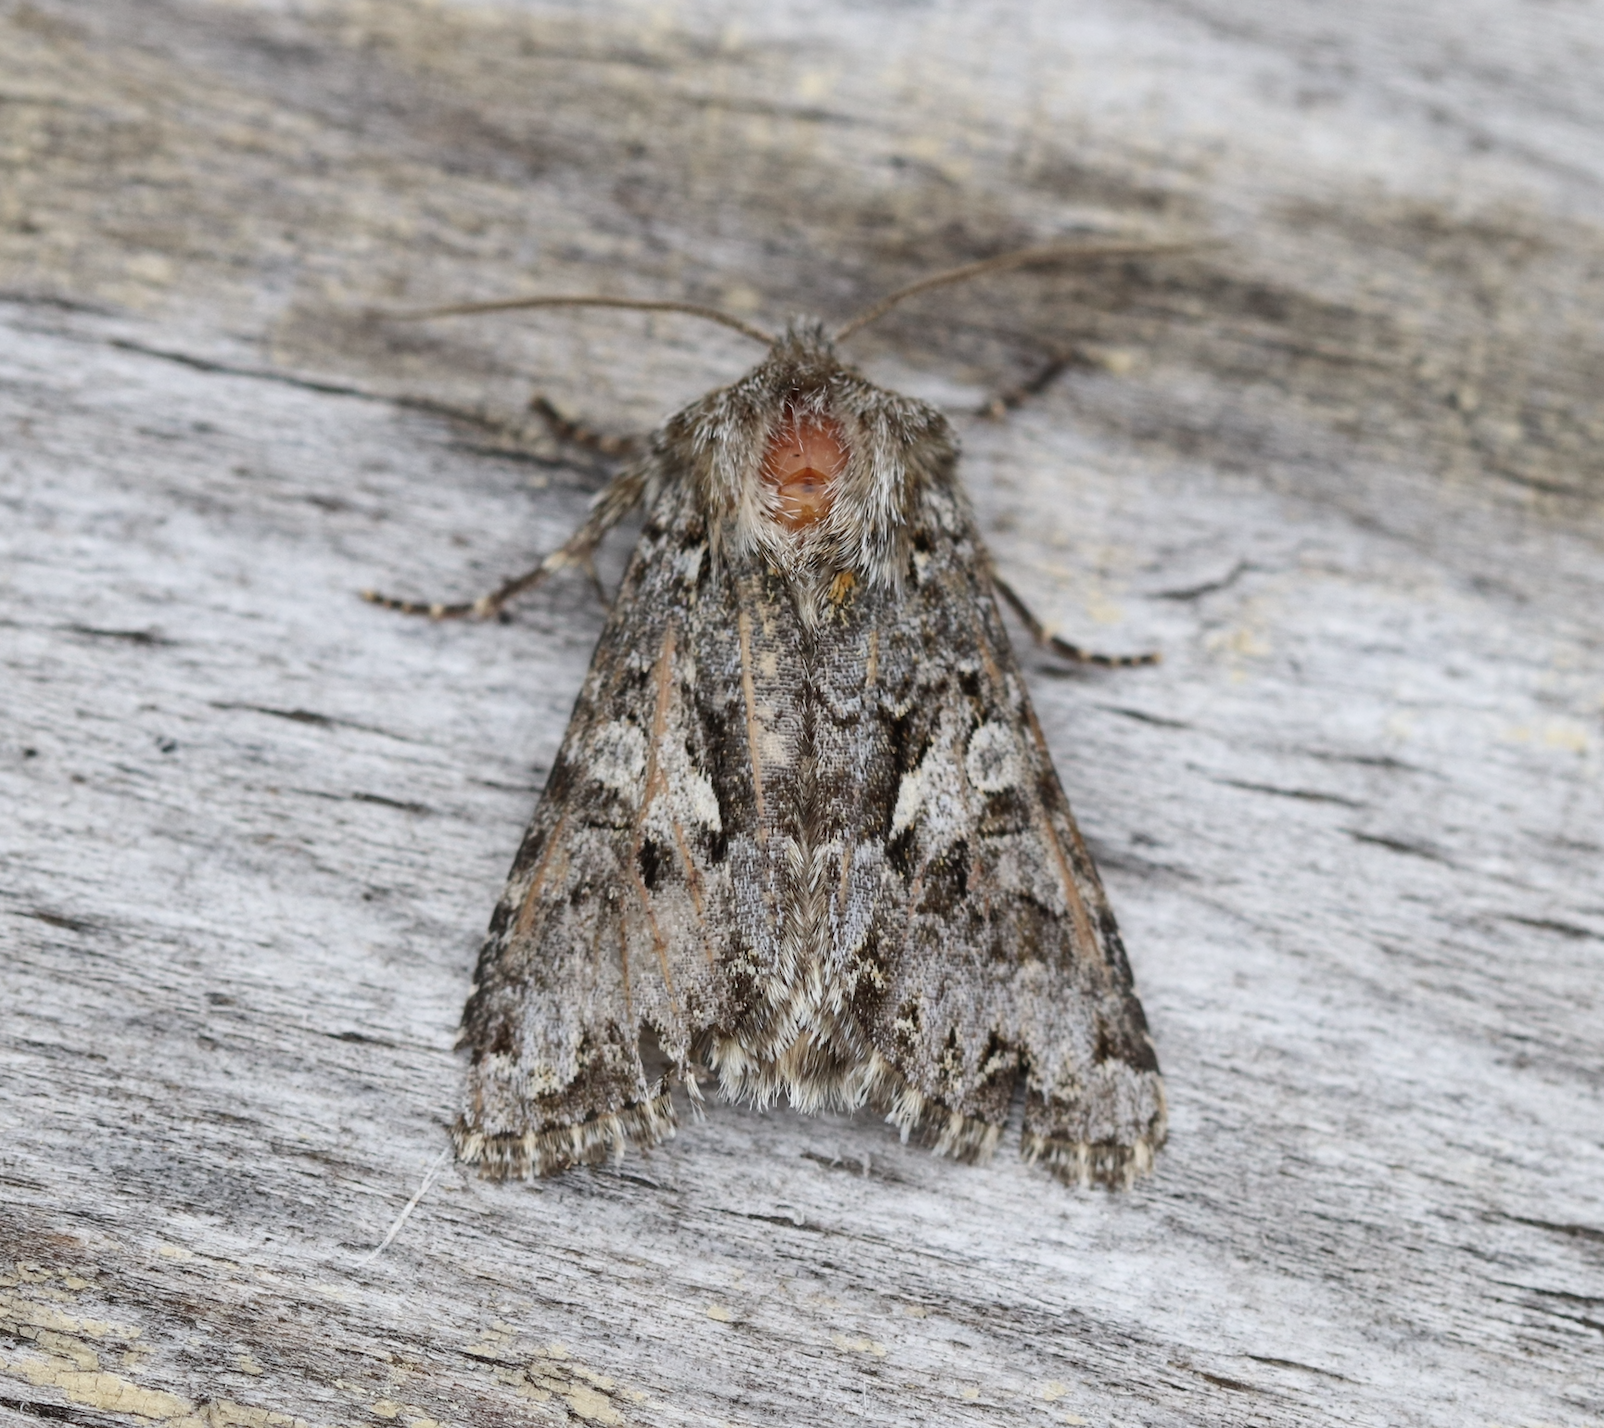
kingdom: Animalia
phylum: Arthropoda
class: Insecta
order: Lepidoptera
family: Noctuidae
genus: Hada
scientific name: Hada plebeja
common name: Shears
